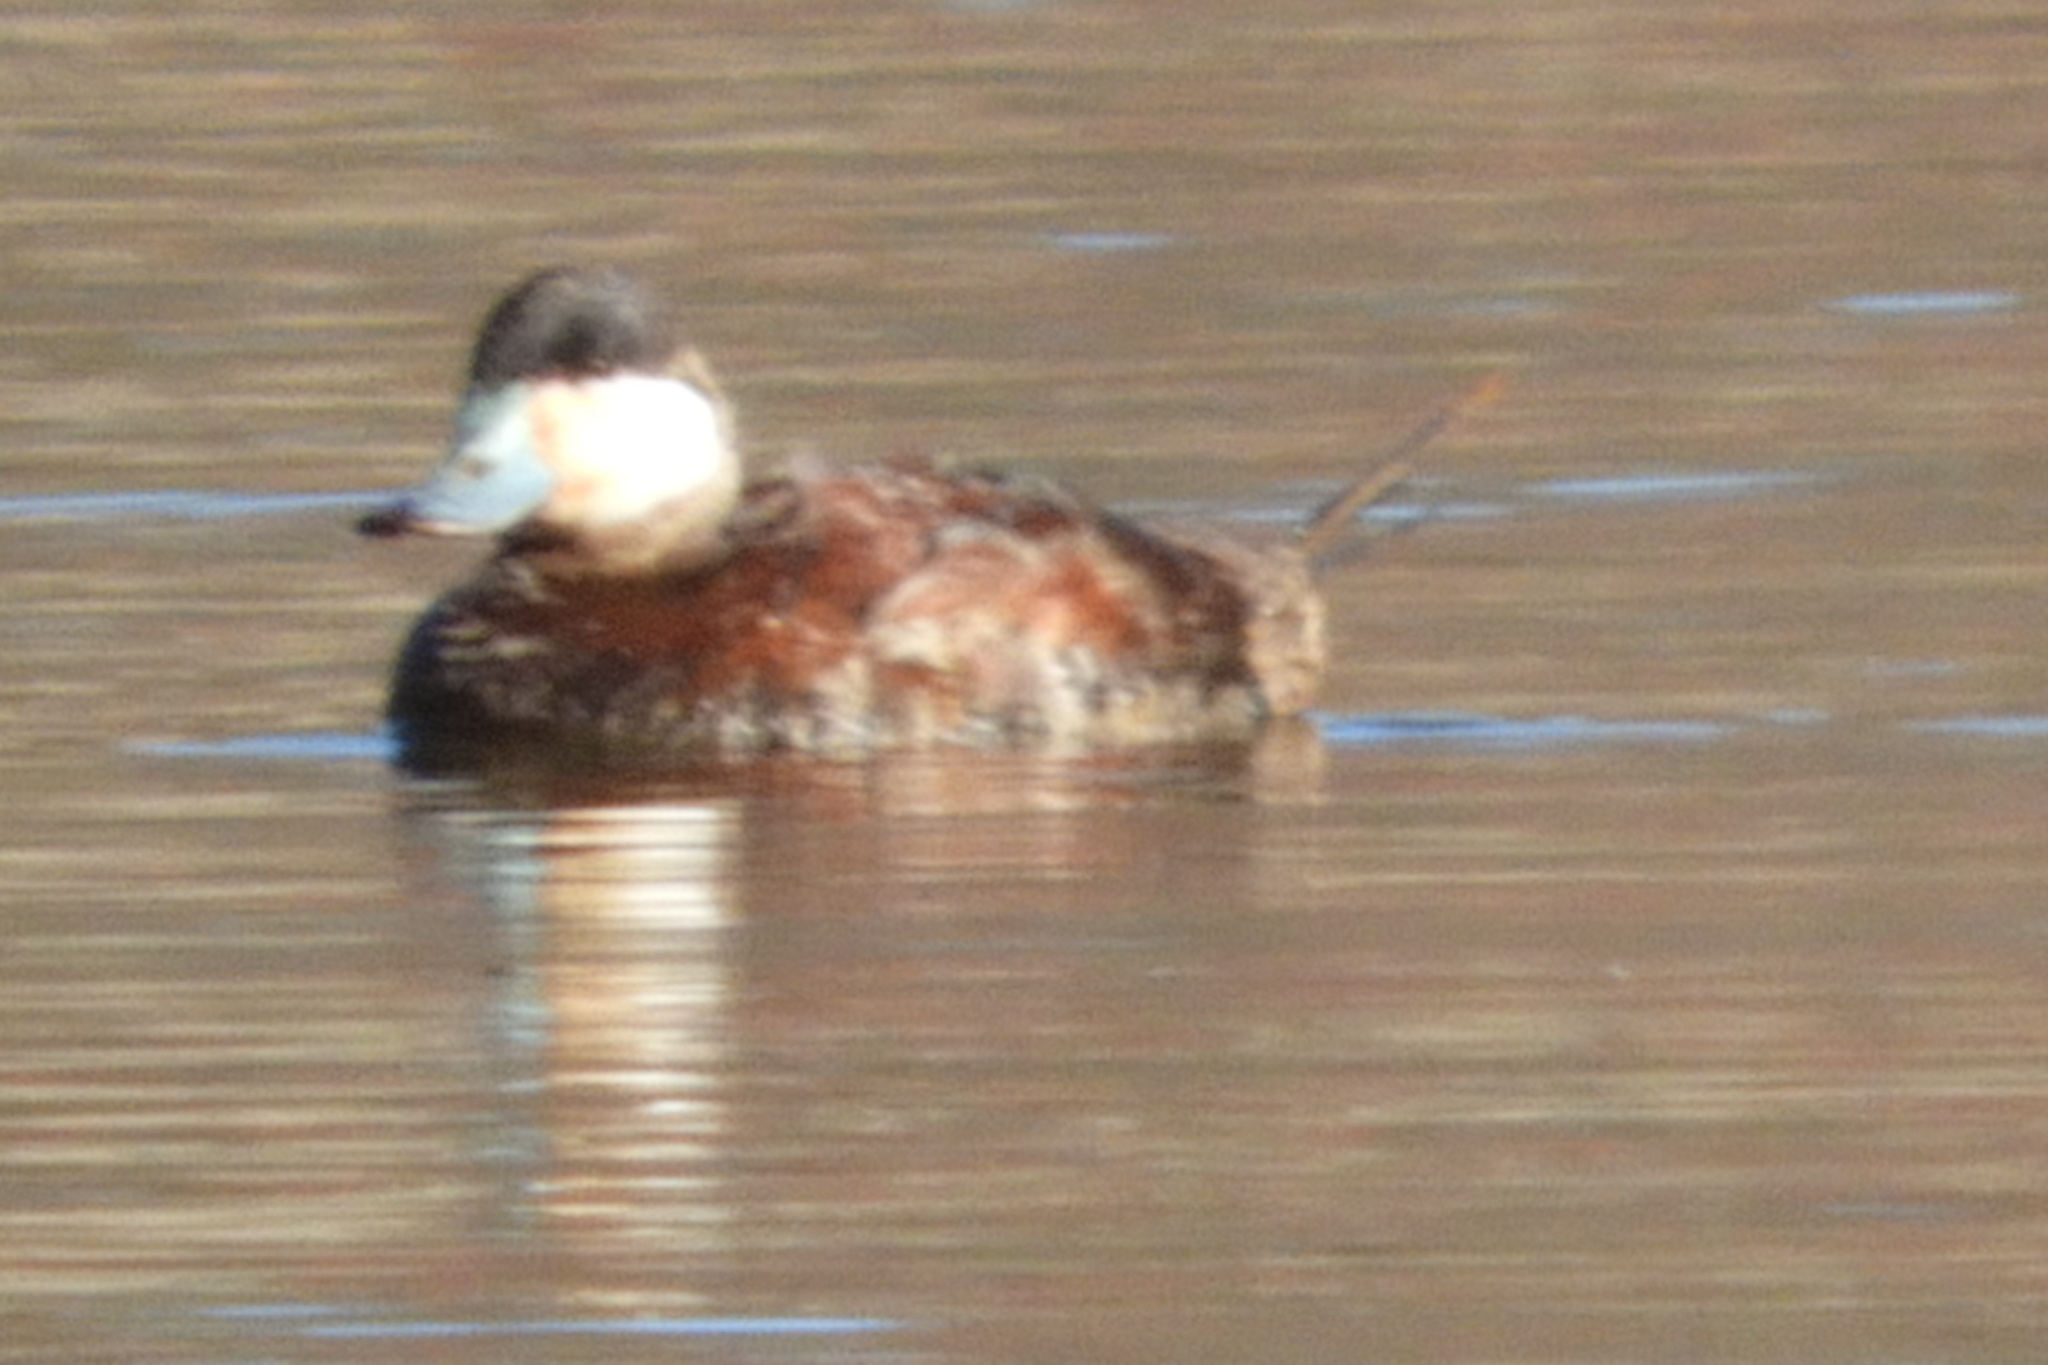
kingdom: Animalia
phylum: Chordata
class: Aves
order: Anseriformes
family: Anatidae
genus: Oxyura
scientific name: Oxyura jamaicensis
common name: Ruddy duck
